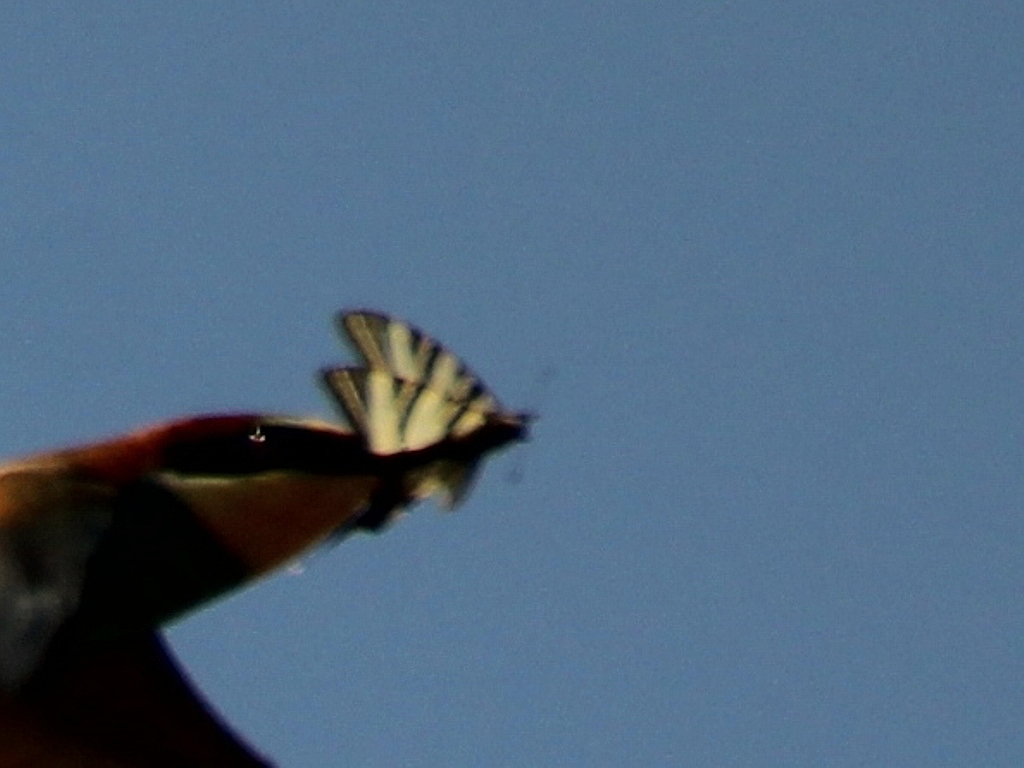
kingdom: Animalia
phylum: Arthropoda
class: Insecta
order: Lepidoptera
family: Papilionidae
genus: Iphiclides
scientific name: Iphiclides podalirius
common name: Scarce swallowtail
